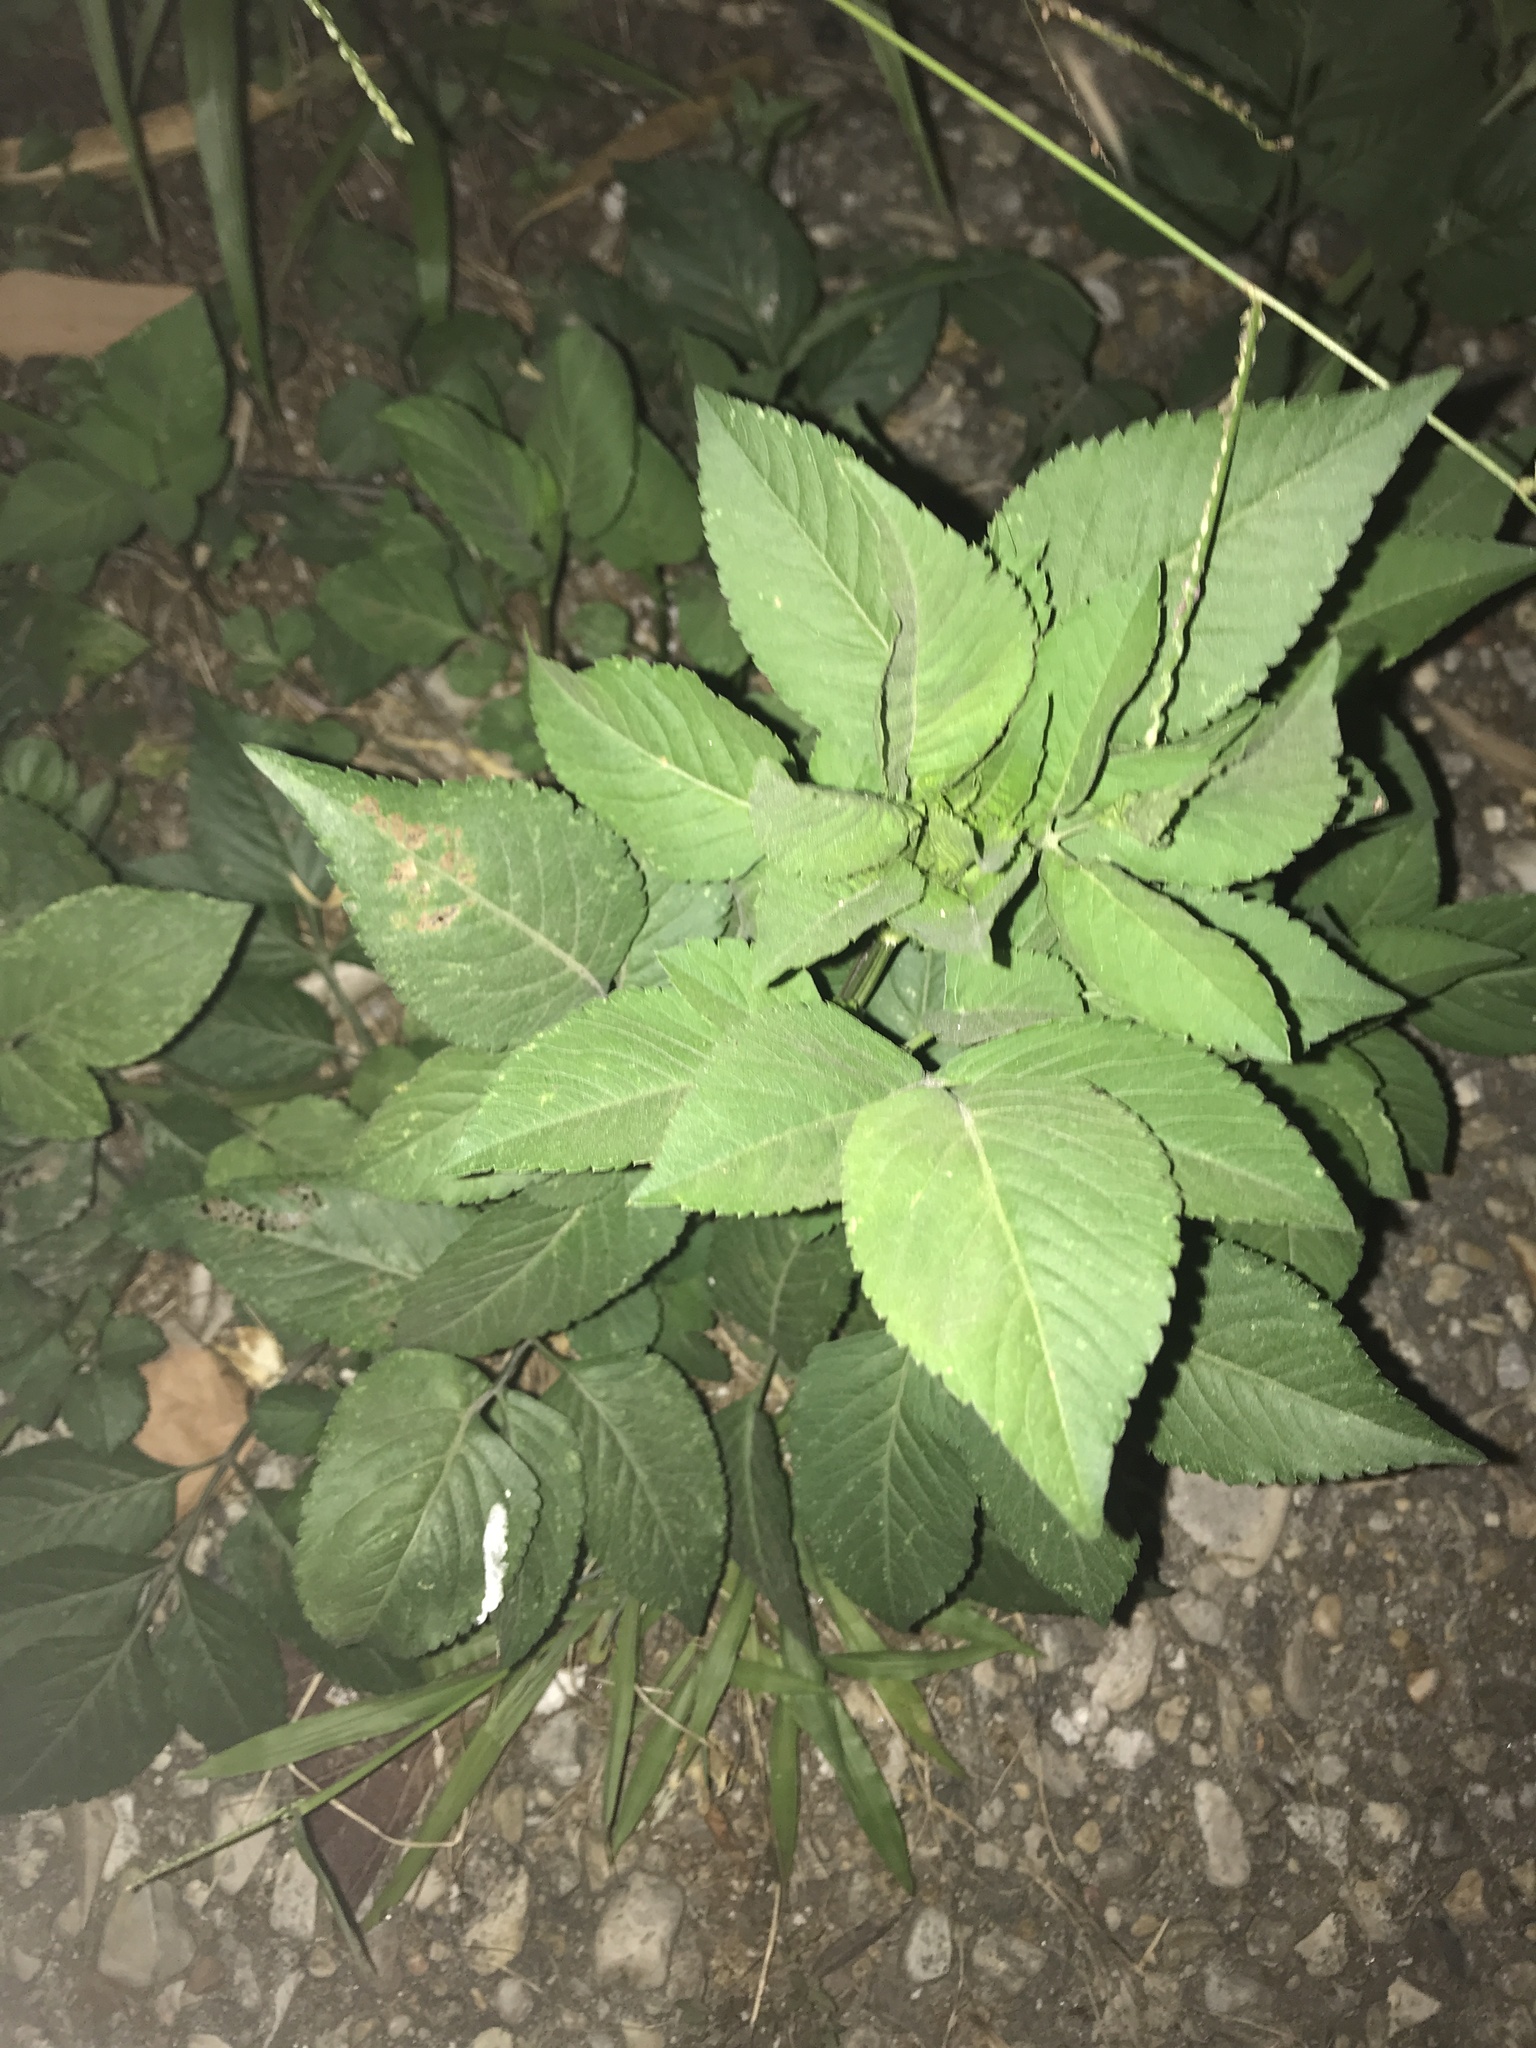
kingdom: Plantae
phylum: Tracheophyta
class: Magnoliopsida
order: Asterales
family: Asteraceae
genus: Bidens
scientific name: Bidens alba
